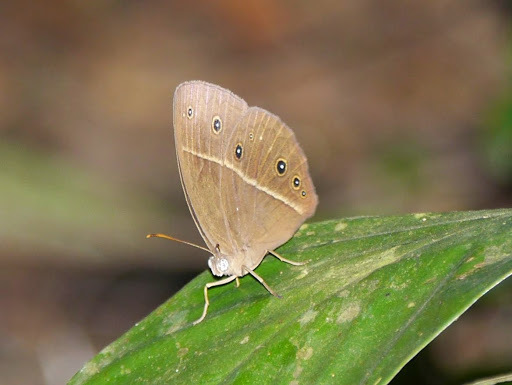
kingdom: Animalia
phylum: Arthropoda
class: Insecta
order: Lepidoptera
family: Nymphalidae
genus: Bicyclus
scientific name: Bicyclus medontias
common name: White-line bush brown
